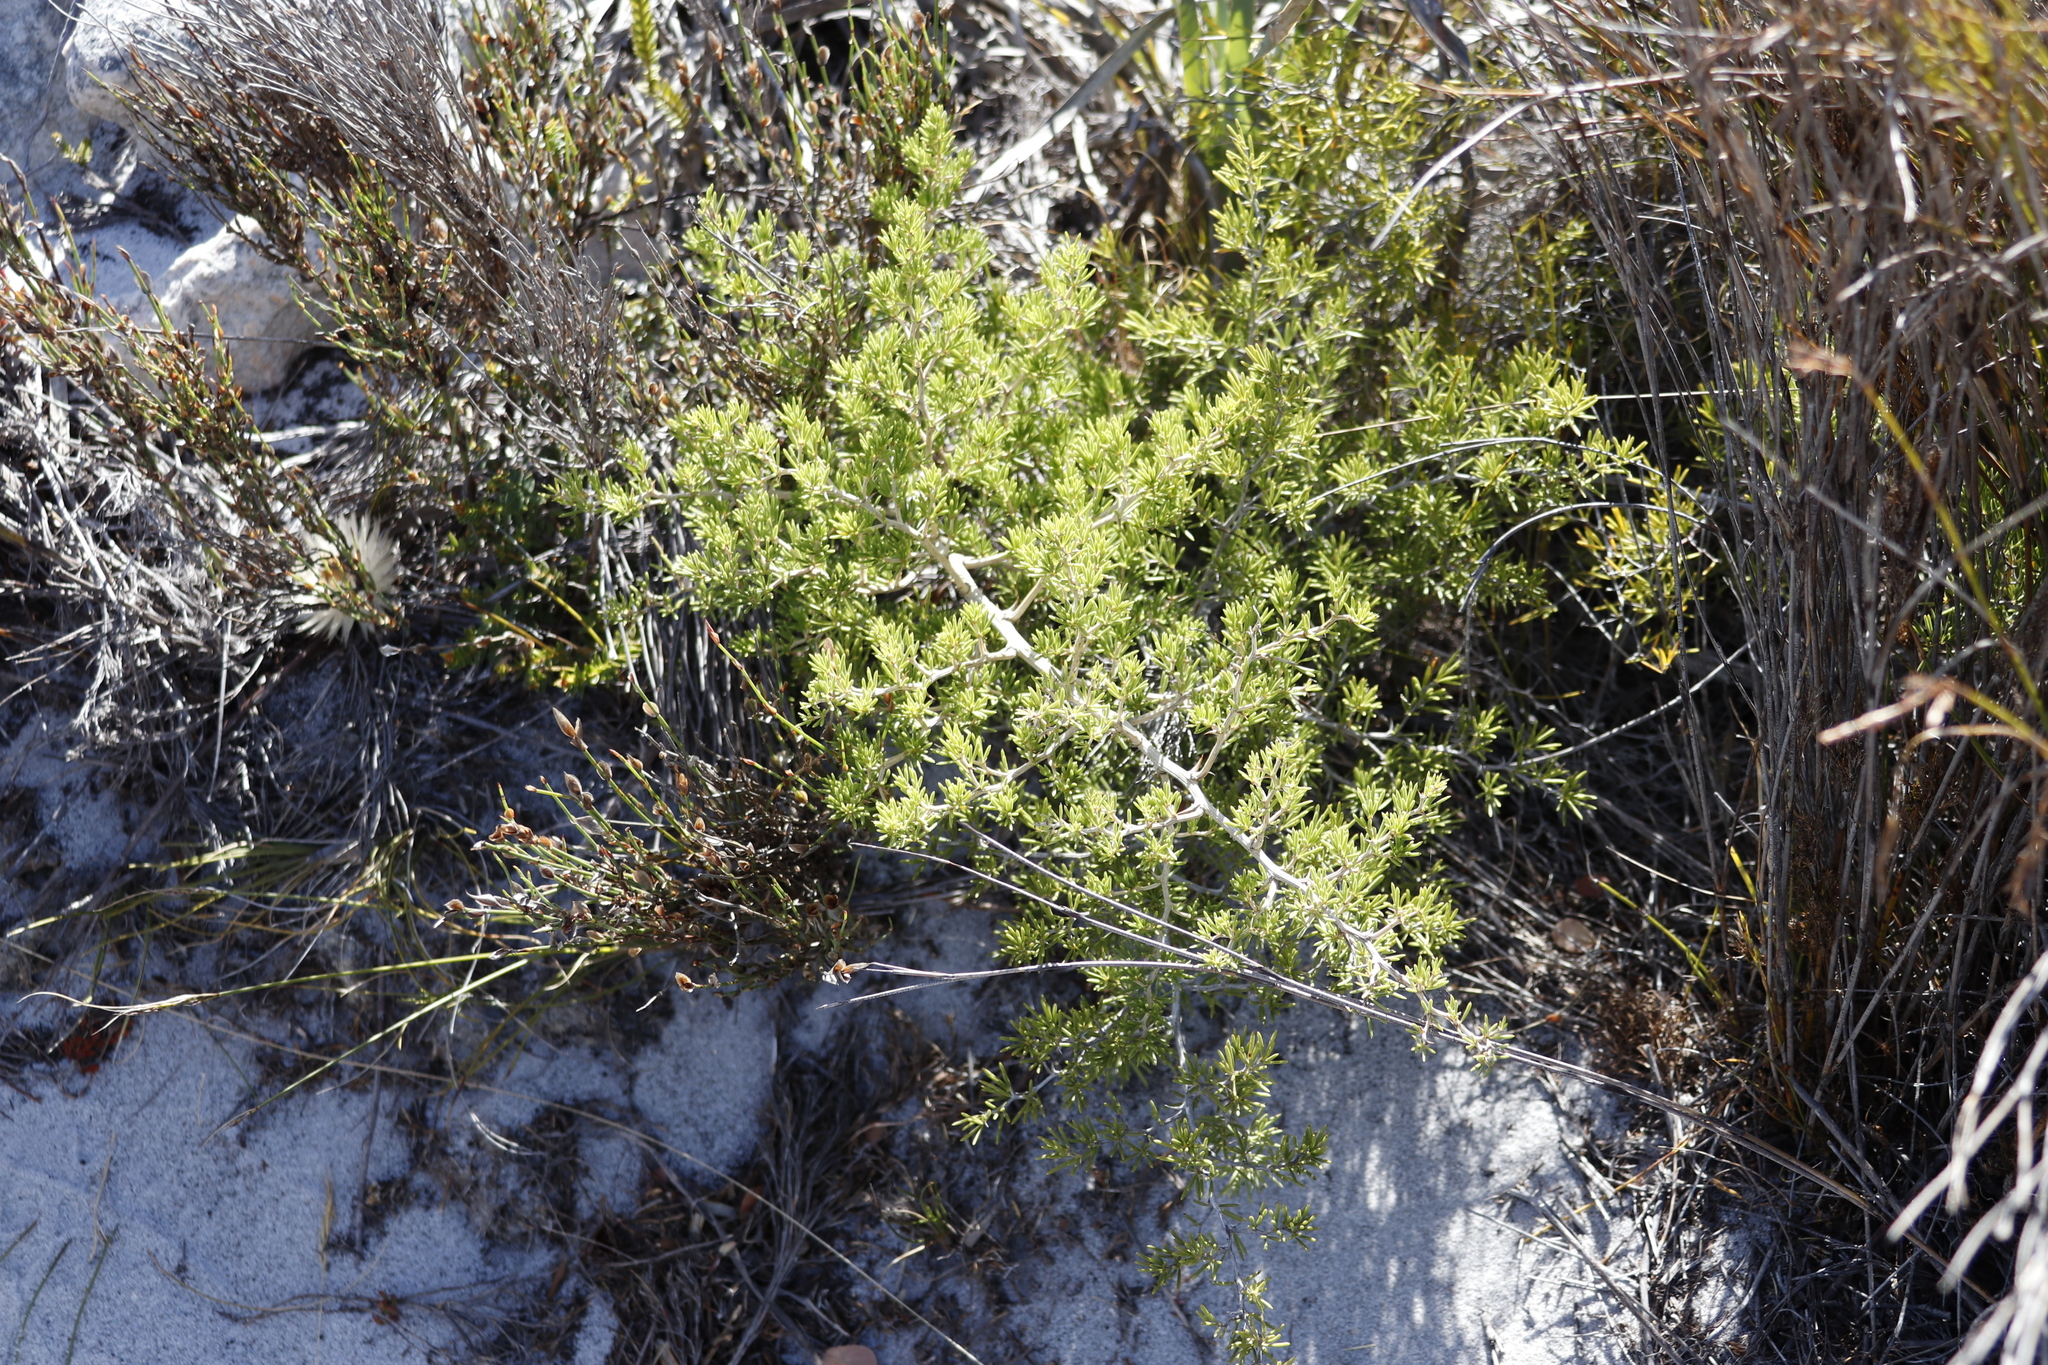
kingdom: Plantae
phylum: Tracheophyta
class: Liliopsida
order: Asparagales
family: Asparagaceae
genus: Asparagus
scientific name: Asparagus lignosus
